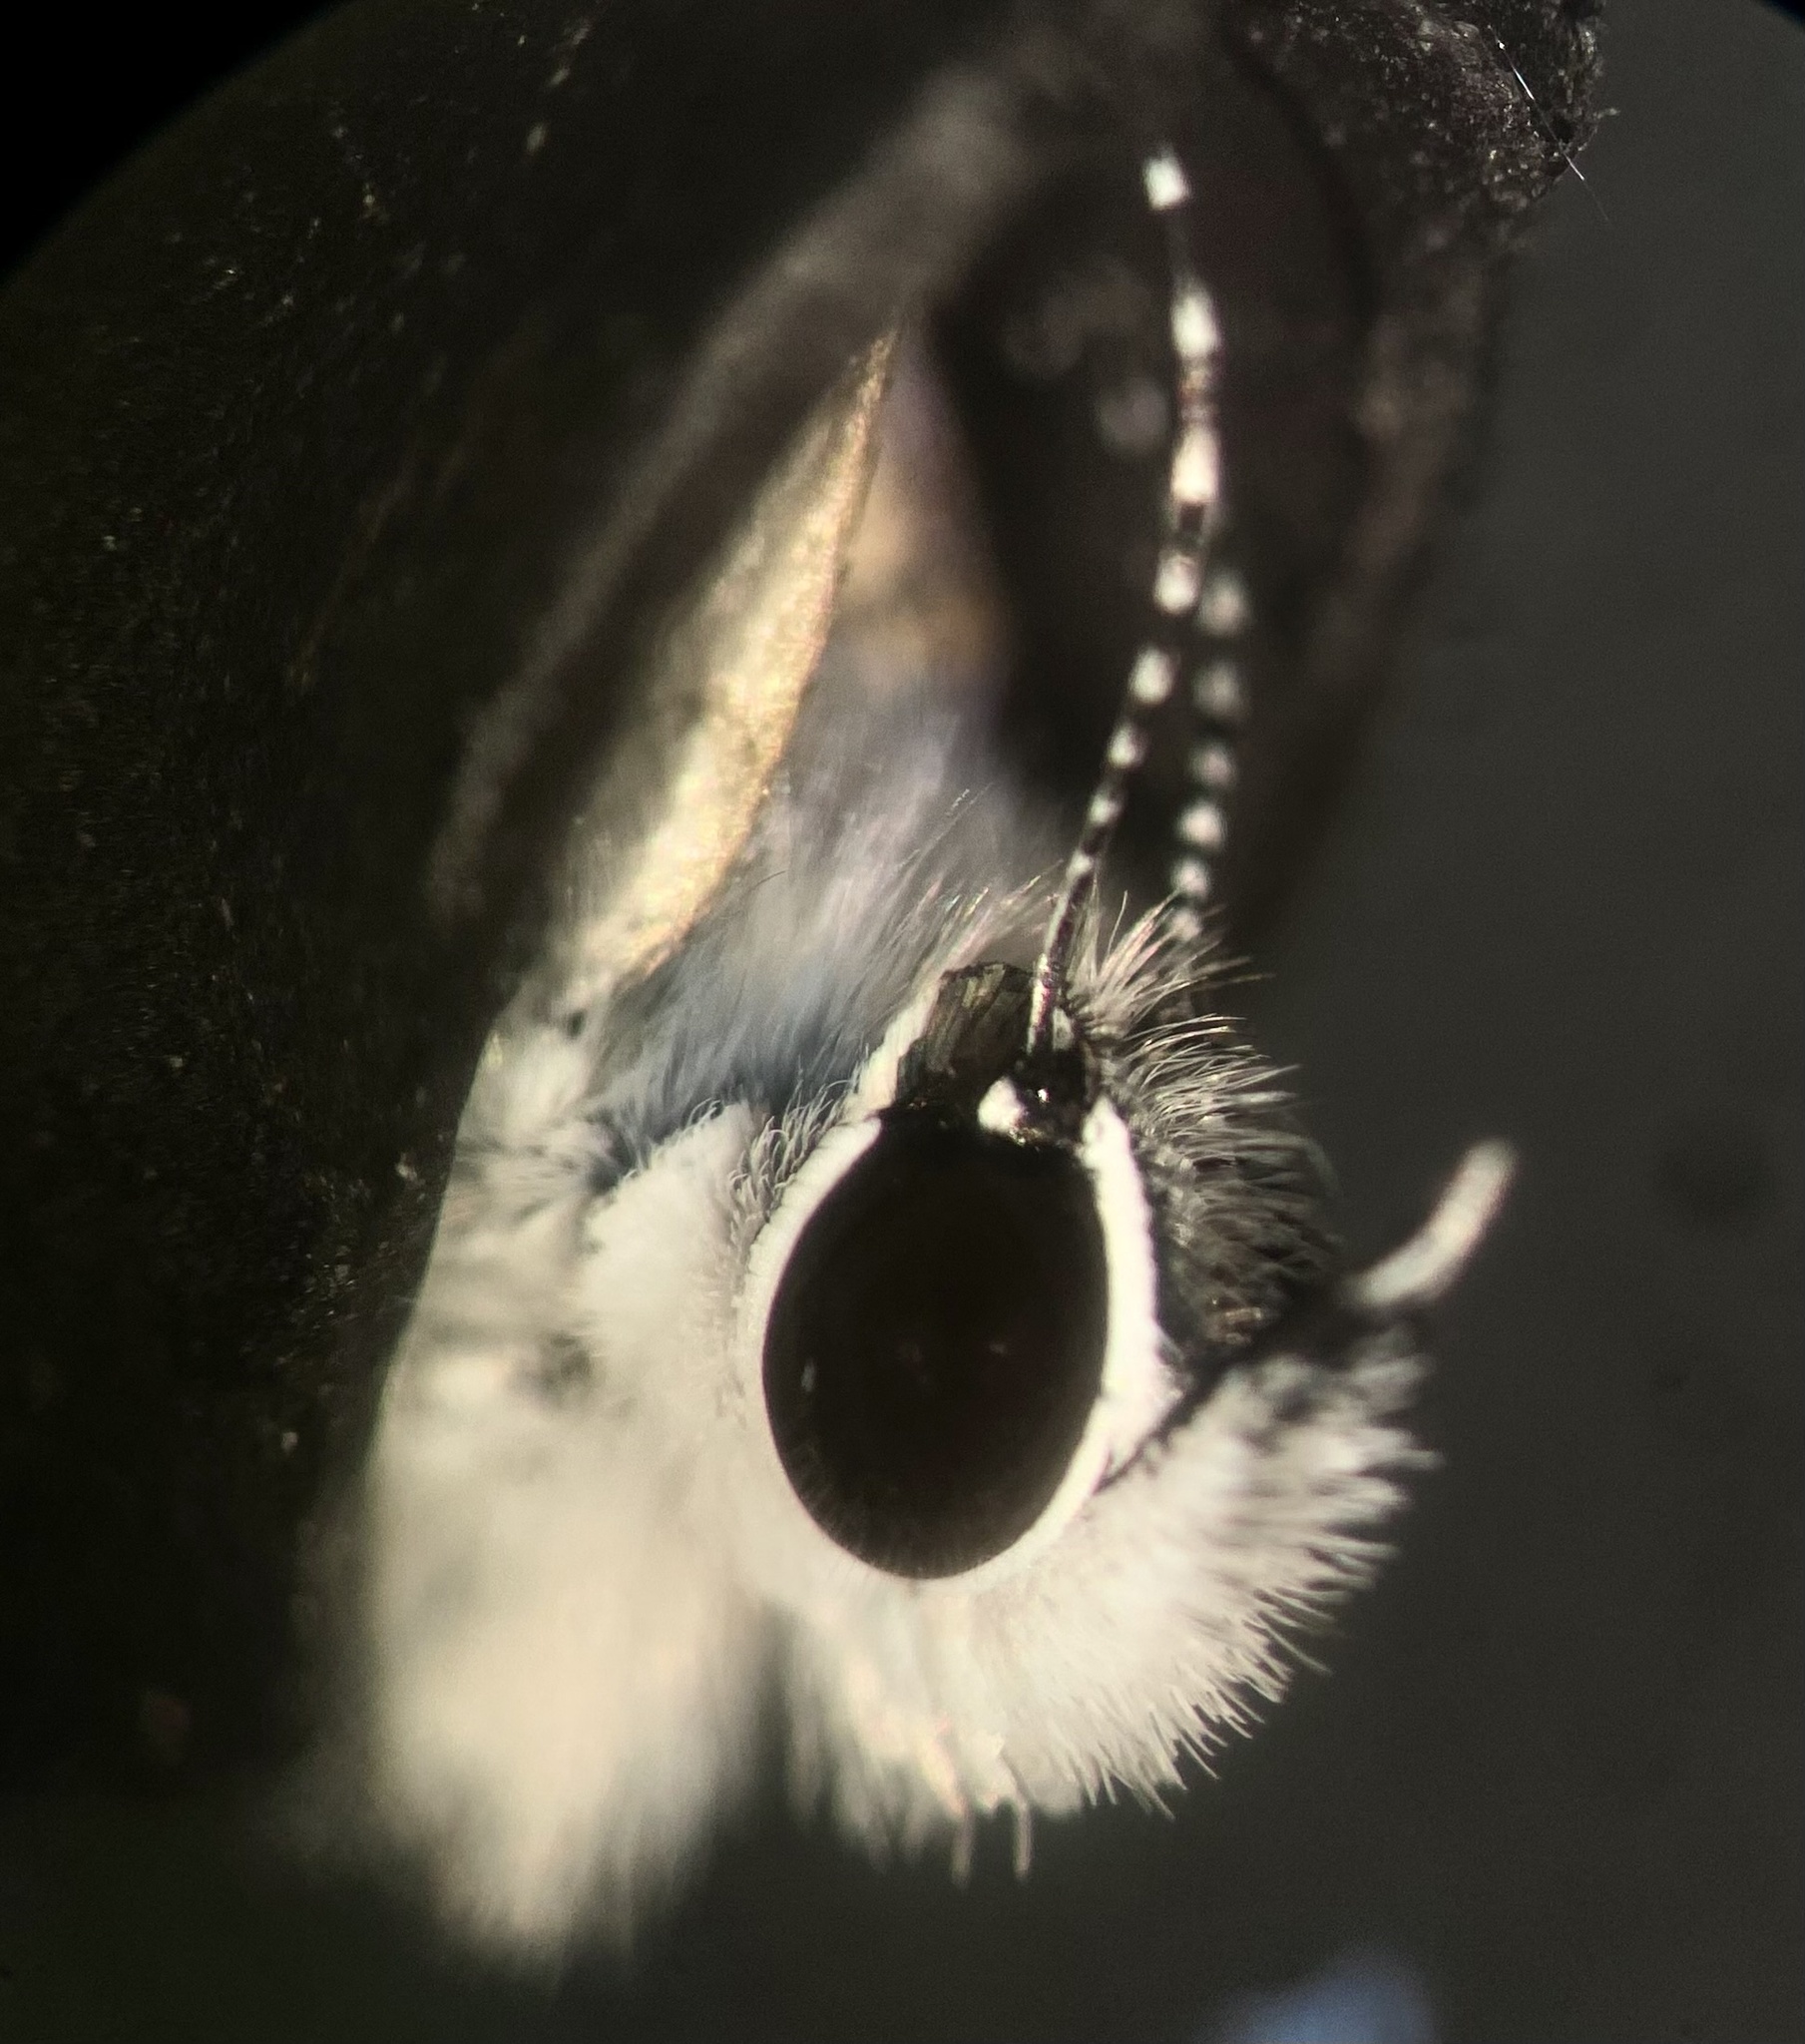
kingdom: Animalia
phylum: Arthropoda
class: Insecta
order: Lepidoptera
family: Lycaenidae
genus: Leptotes
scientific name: Leptotes cassius
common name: Cassius blue
